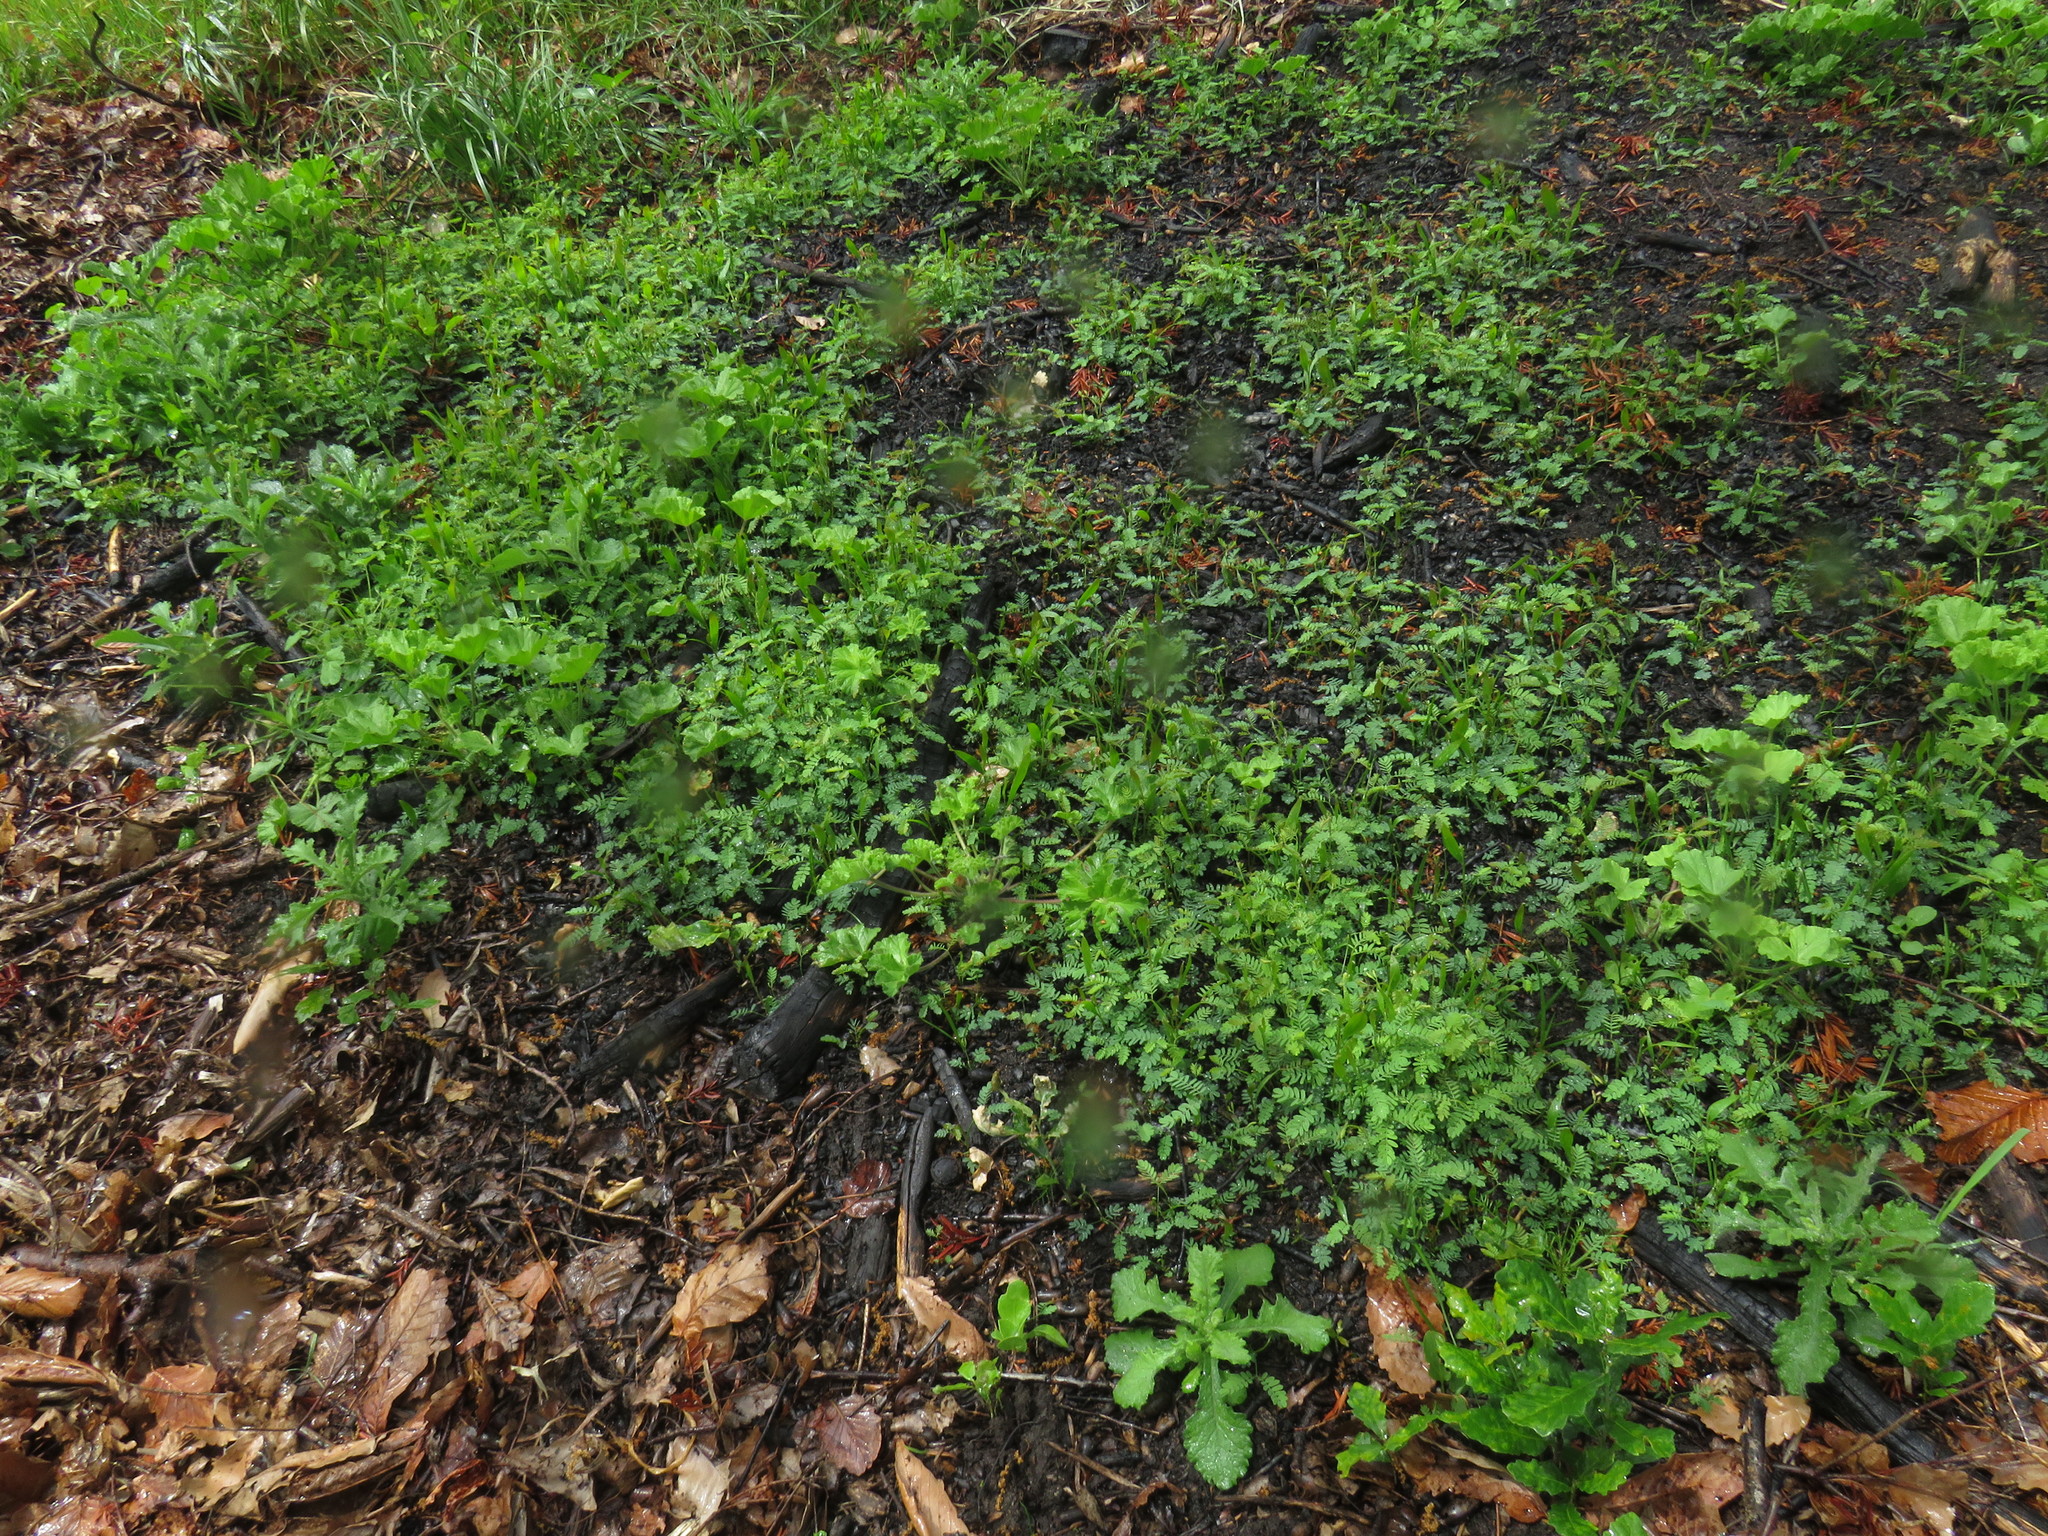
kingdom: Plantae
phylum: Tracheophyta
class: Magnoliopsida
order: Fabales
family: Fabaceae
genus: Acacia
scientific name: Acacia saligna
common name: Orange wattle
